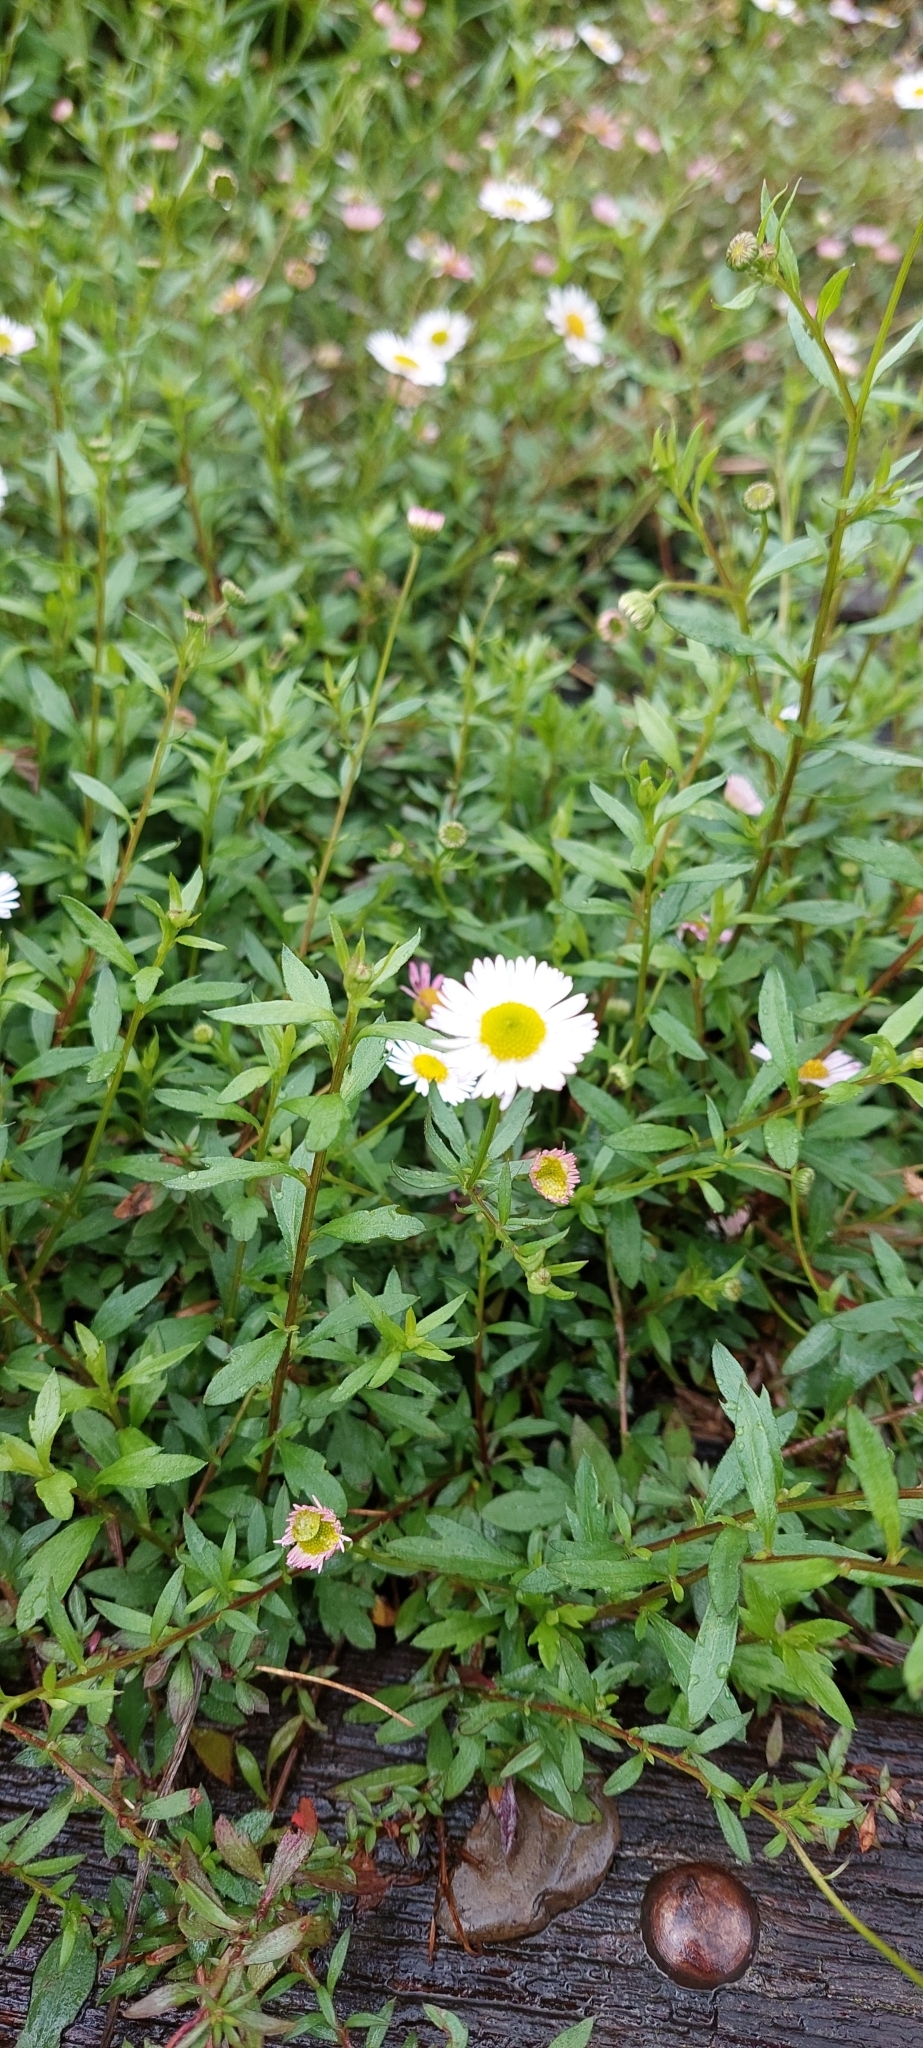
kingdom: Plantae
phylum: Tracheophyta
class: Magnoliopsida
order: Asterales
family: Asteraceae
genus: Erigeron
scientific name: Erigeron karvinskianus
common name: Mexican fleabane
